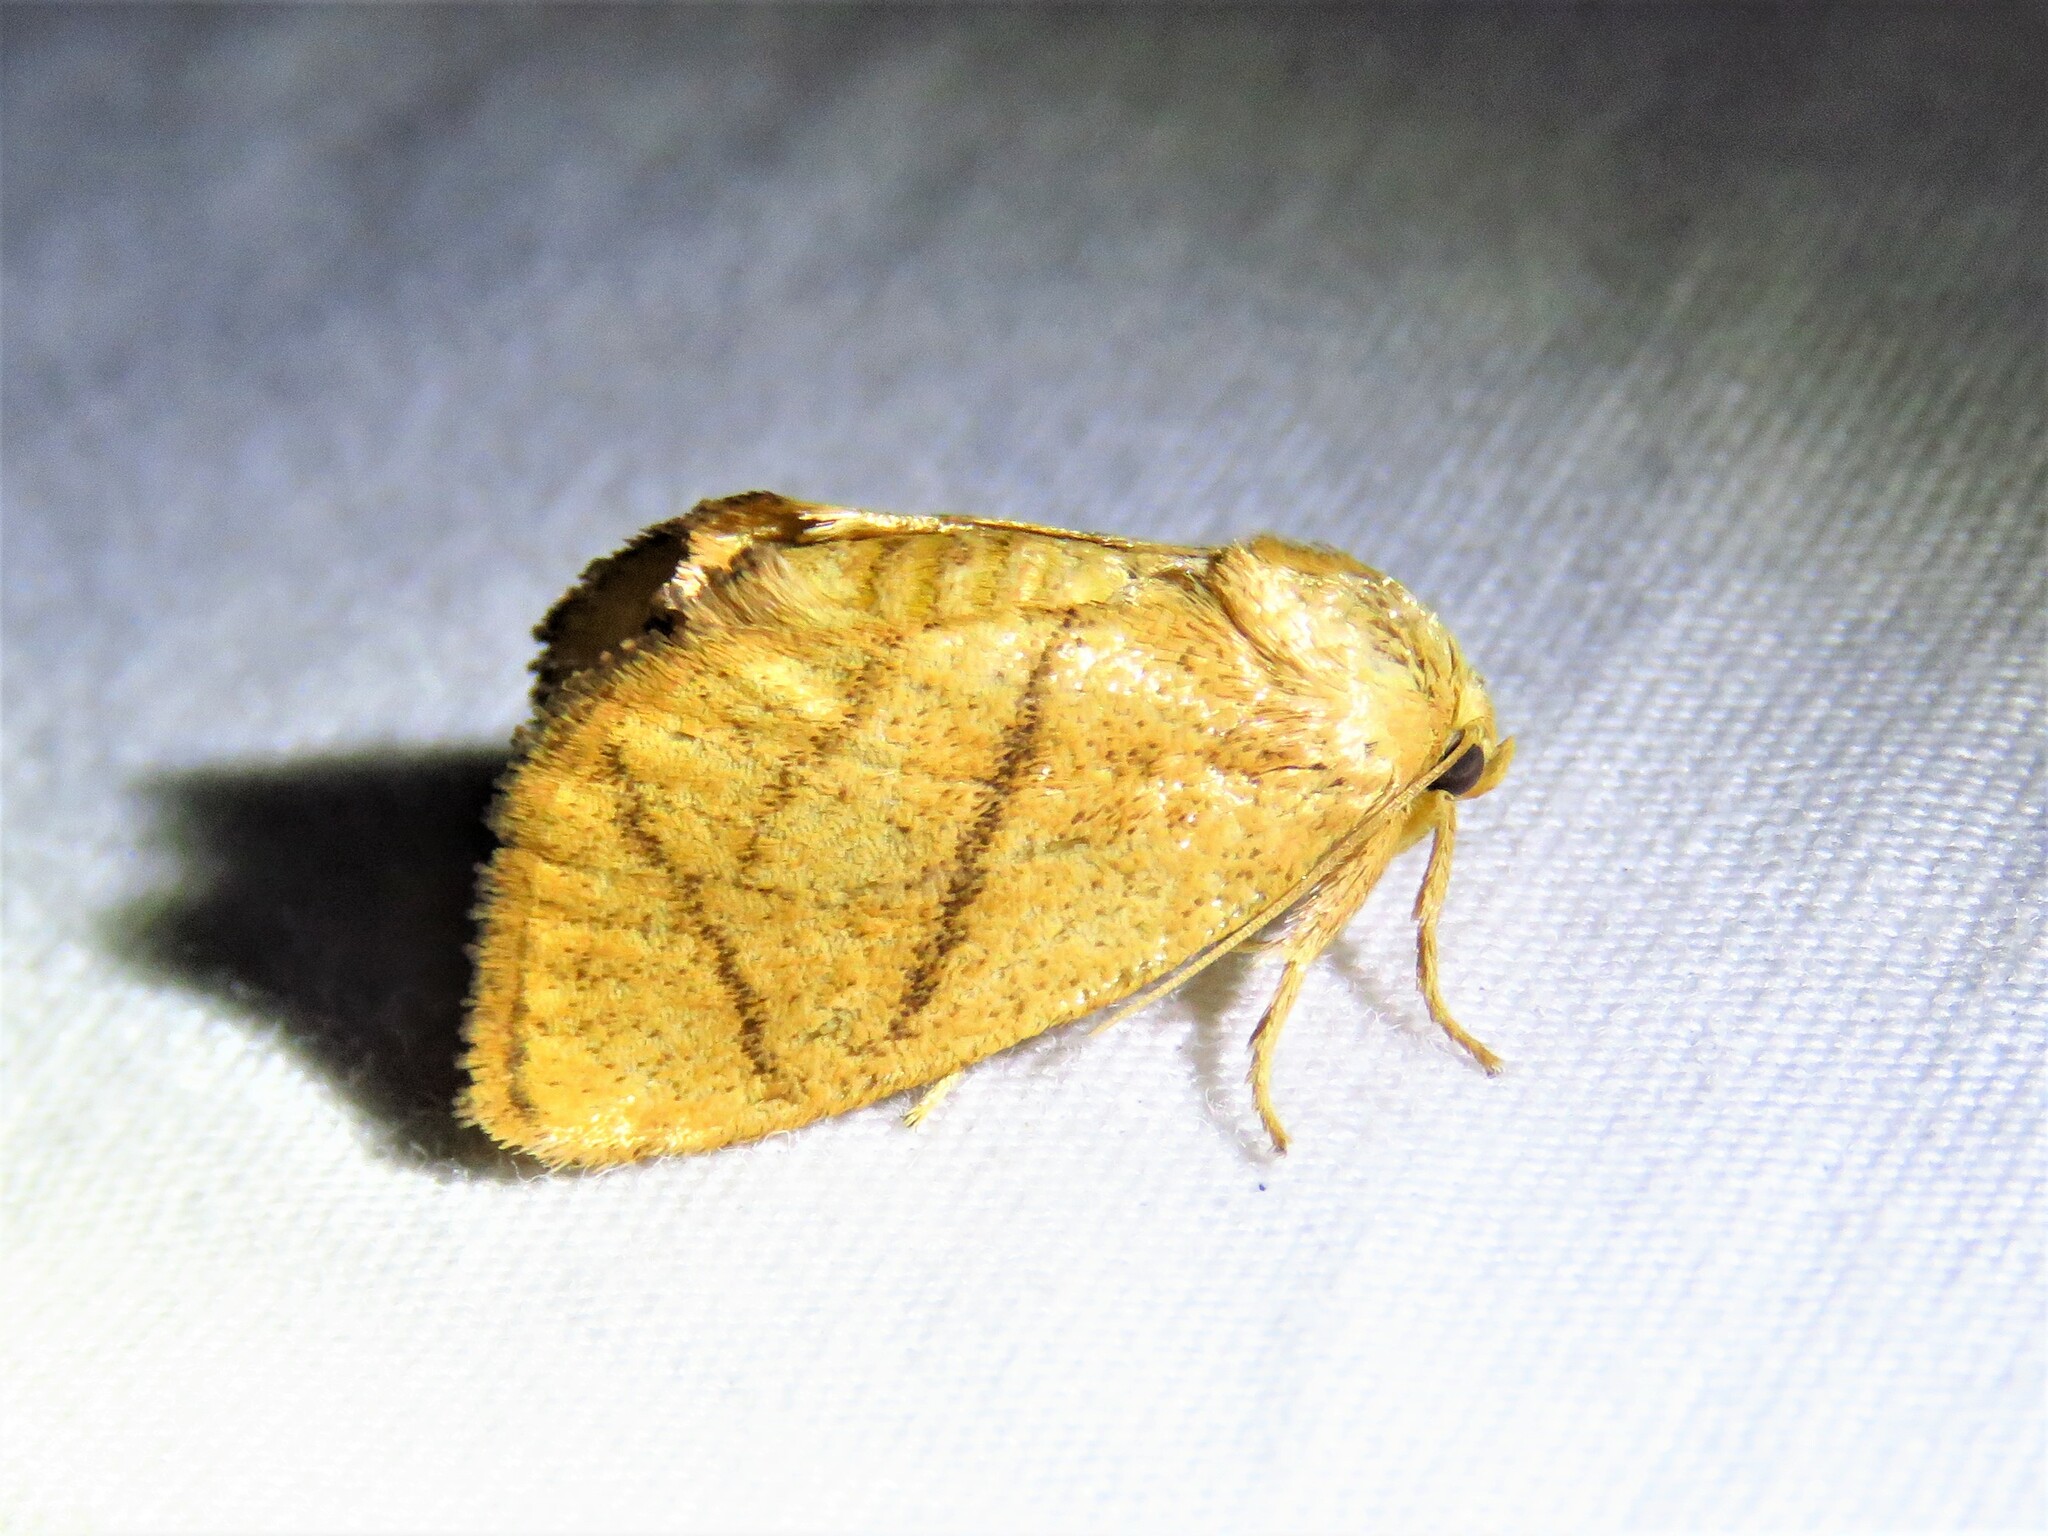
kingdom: Animalia
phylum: Arthropoda
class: Insecta
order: Lepidoptera
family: Limacodidae
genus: Apoda
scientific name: Apoda y-inversa
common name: Yellow-collared slug moth
